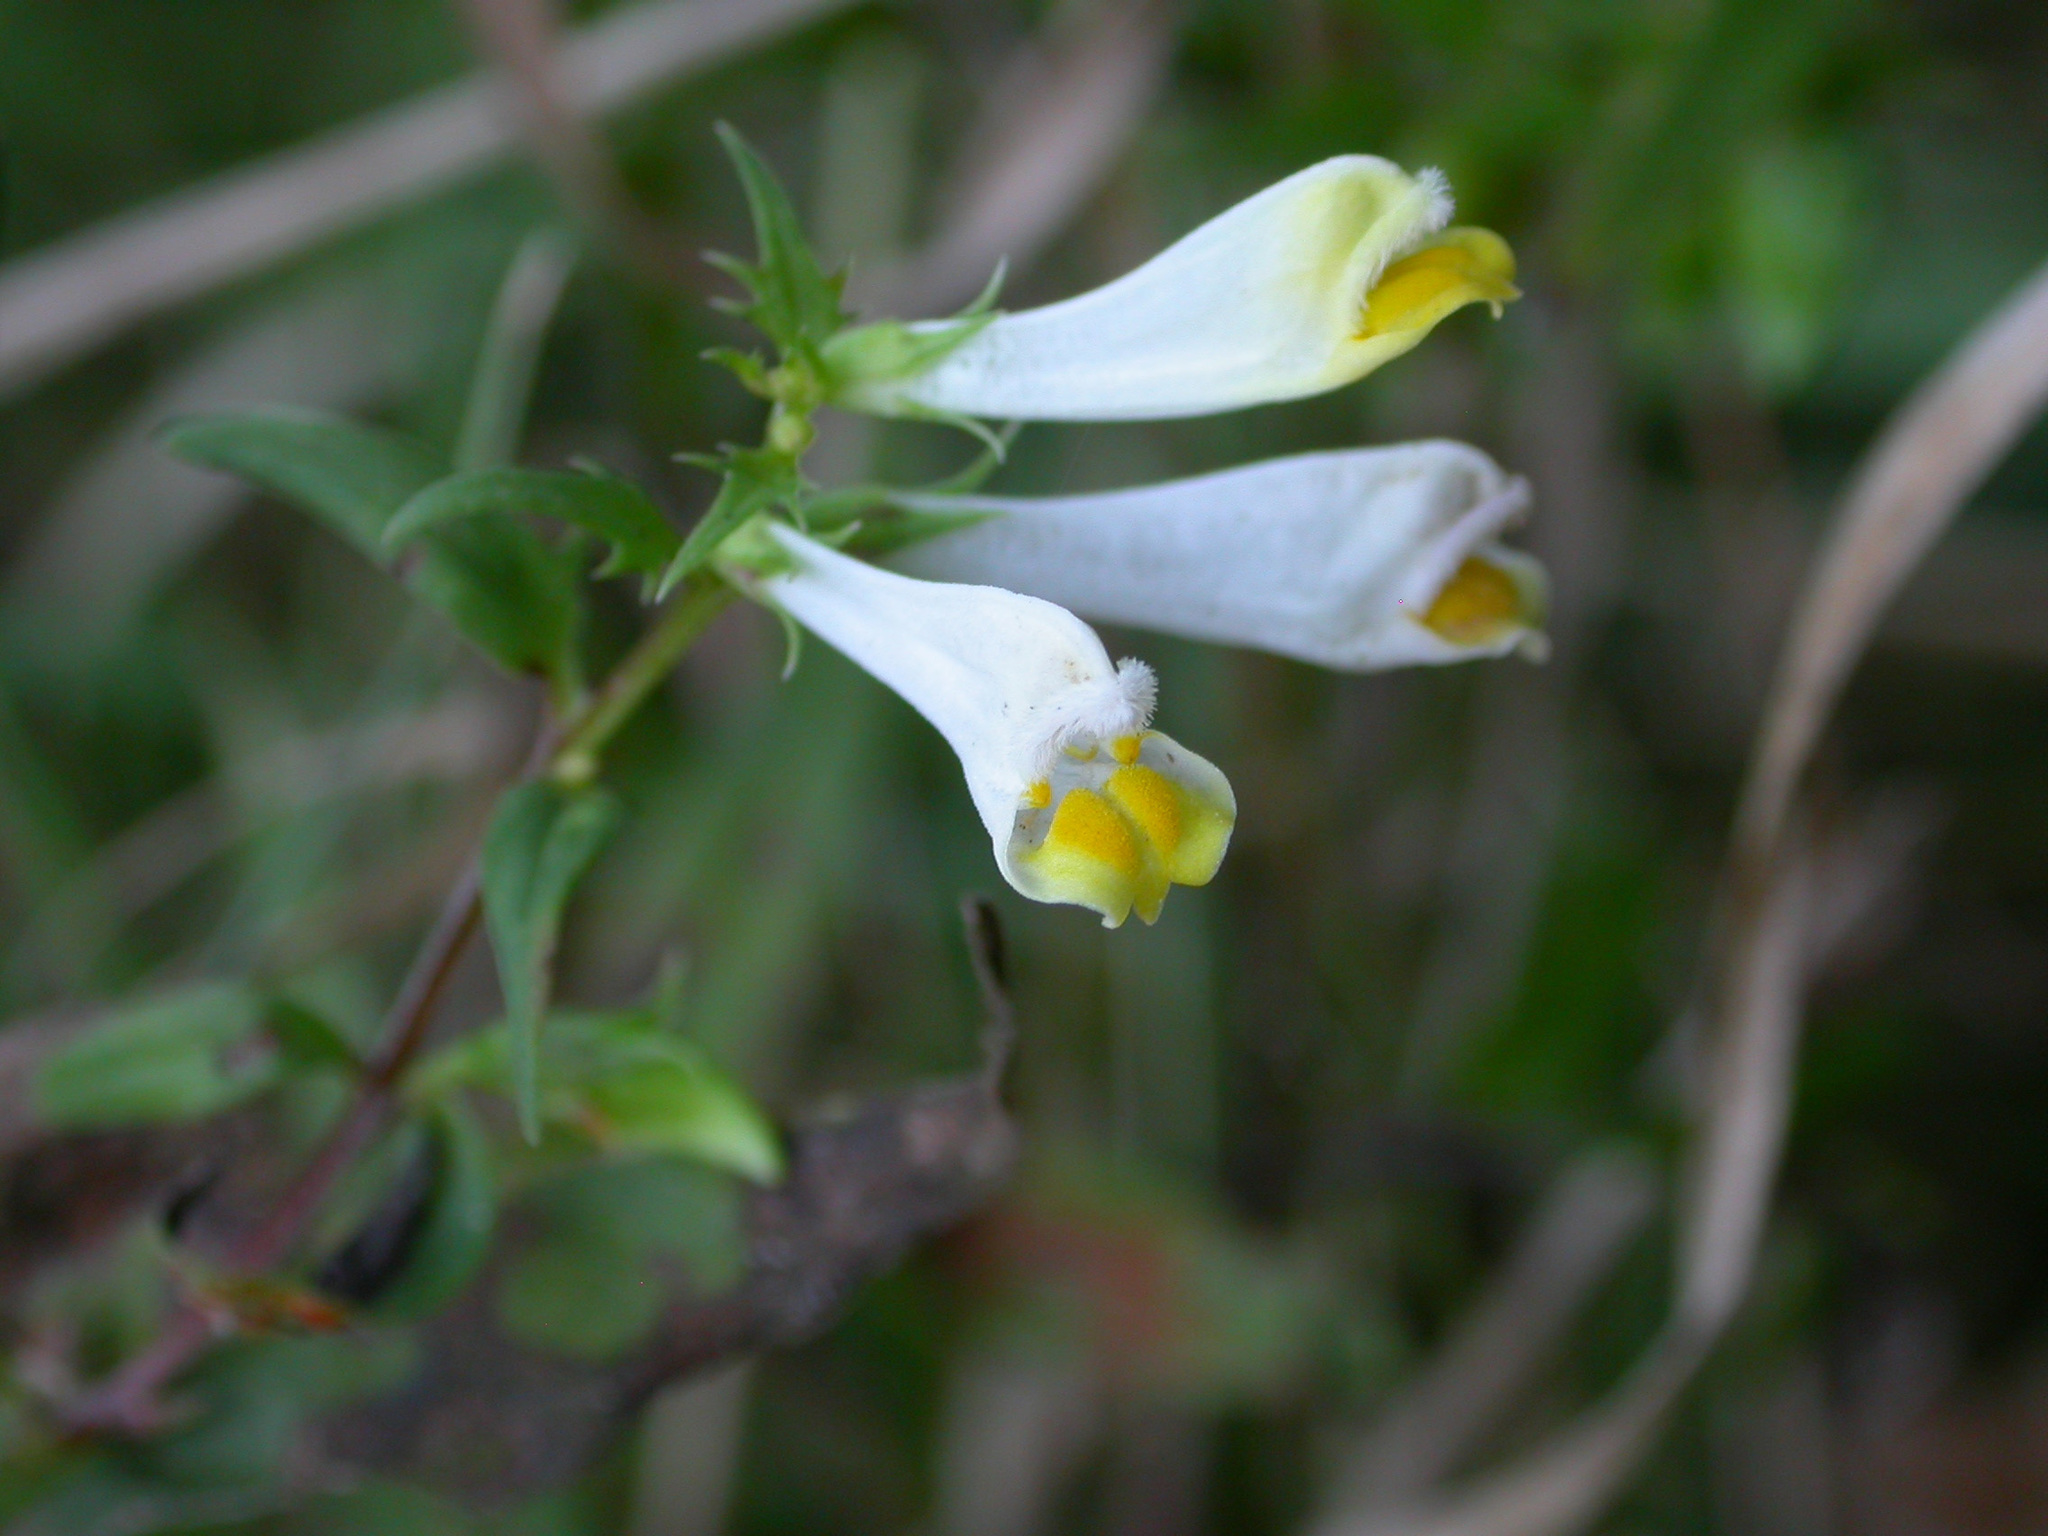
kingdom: Plantae
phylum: Tracheophyta
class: Magnoliopsida
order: Lamiales
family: Orobanchaceae
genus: Melampyrum
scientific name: Melampyrum pratense
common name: Common cow-wheat
